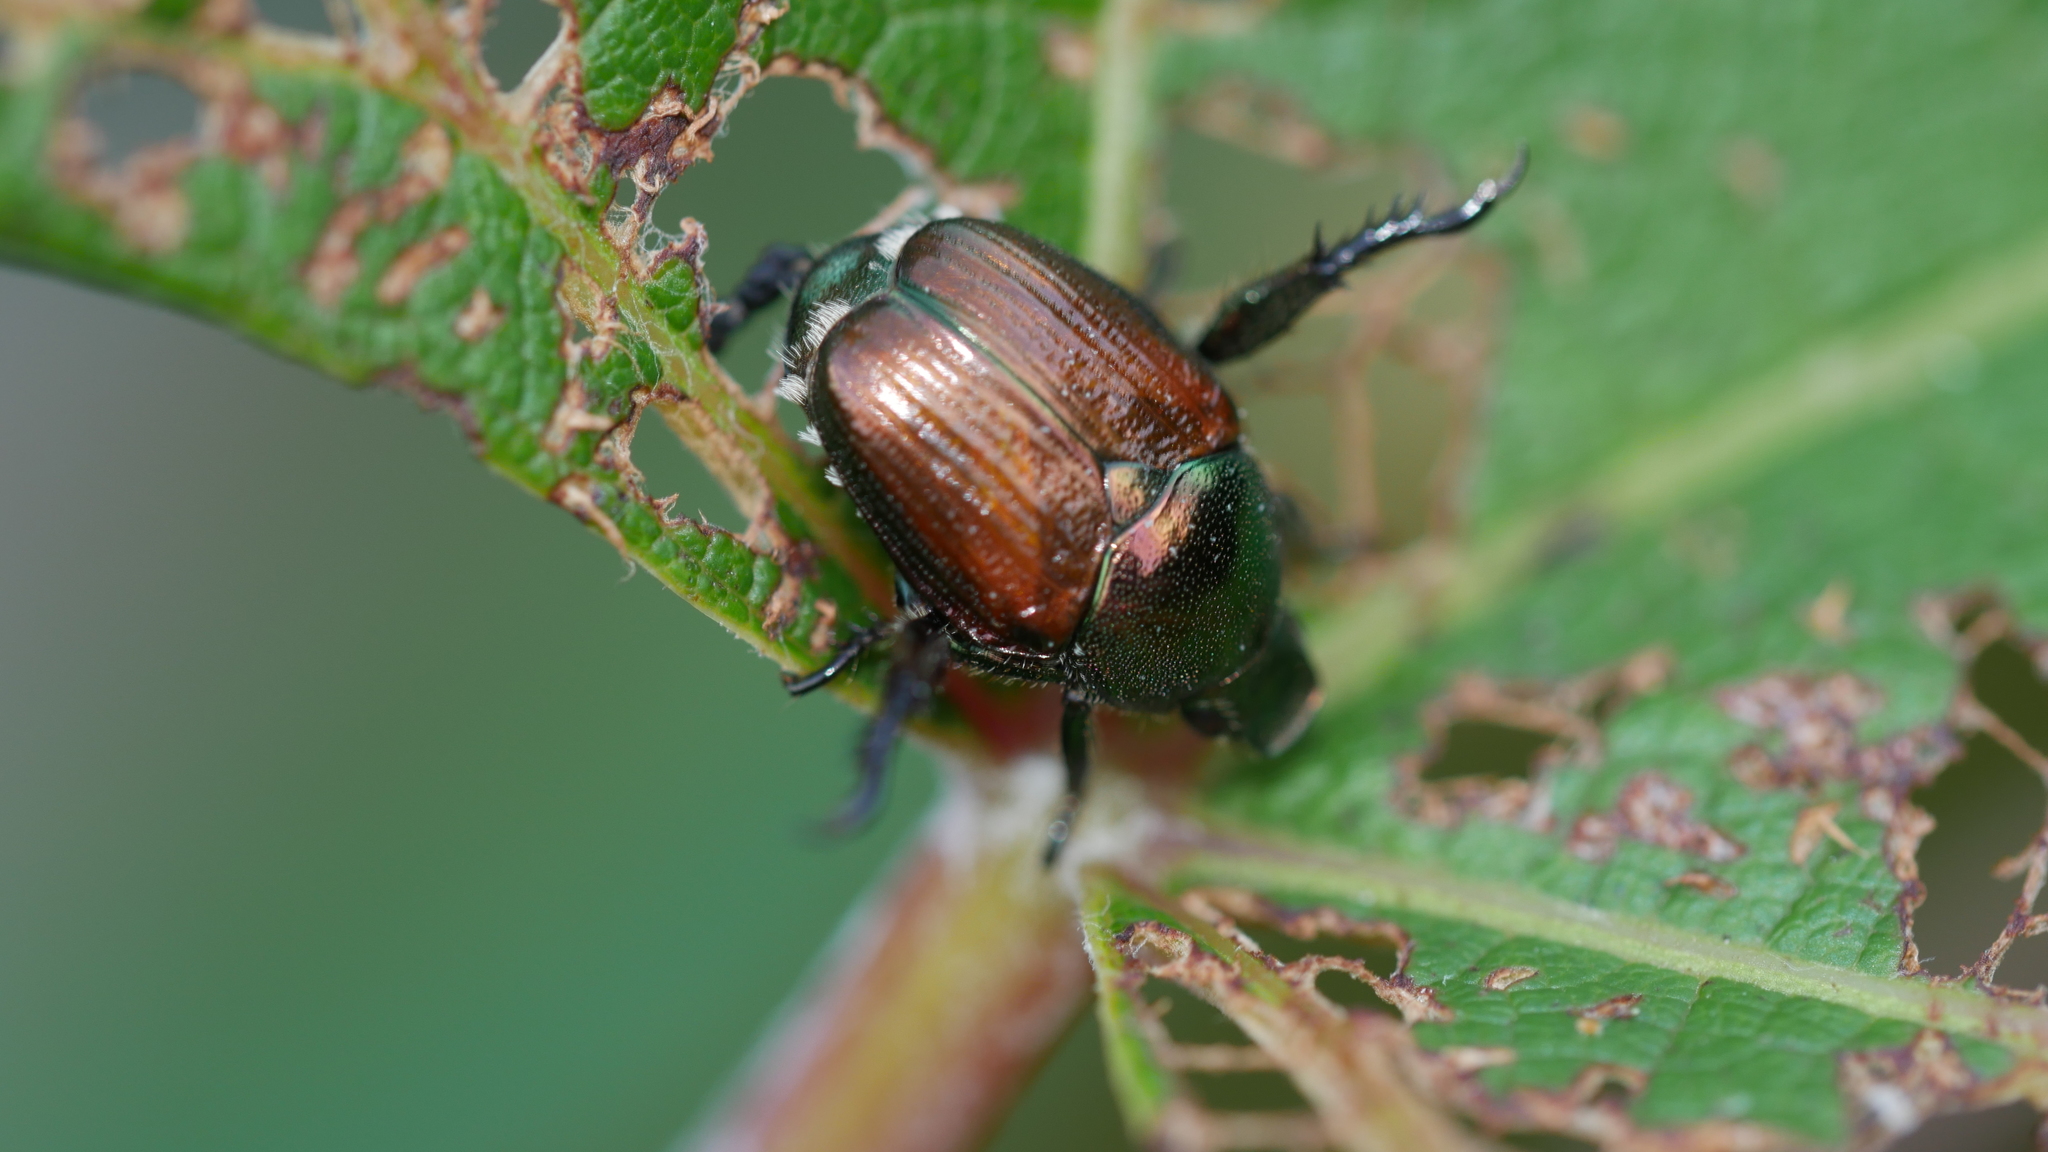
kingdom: Animalia
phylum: Arthropoda
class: Insecta
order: Coleoptera
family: Scarabaeidae
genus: Popillia
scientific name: Popillia japonica
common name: Japanese beetle
